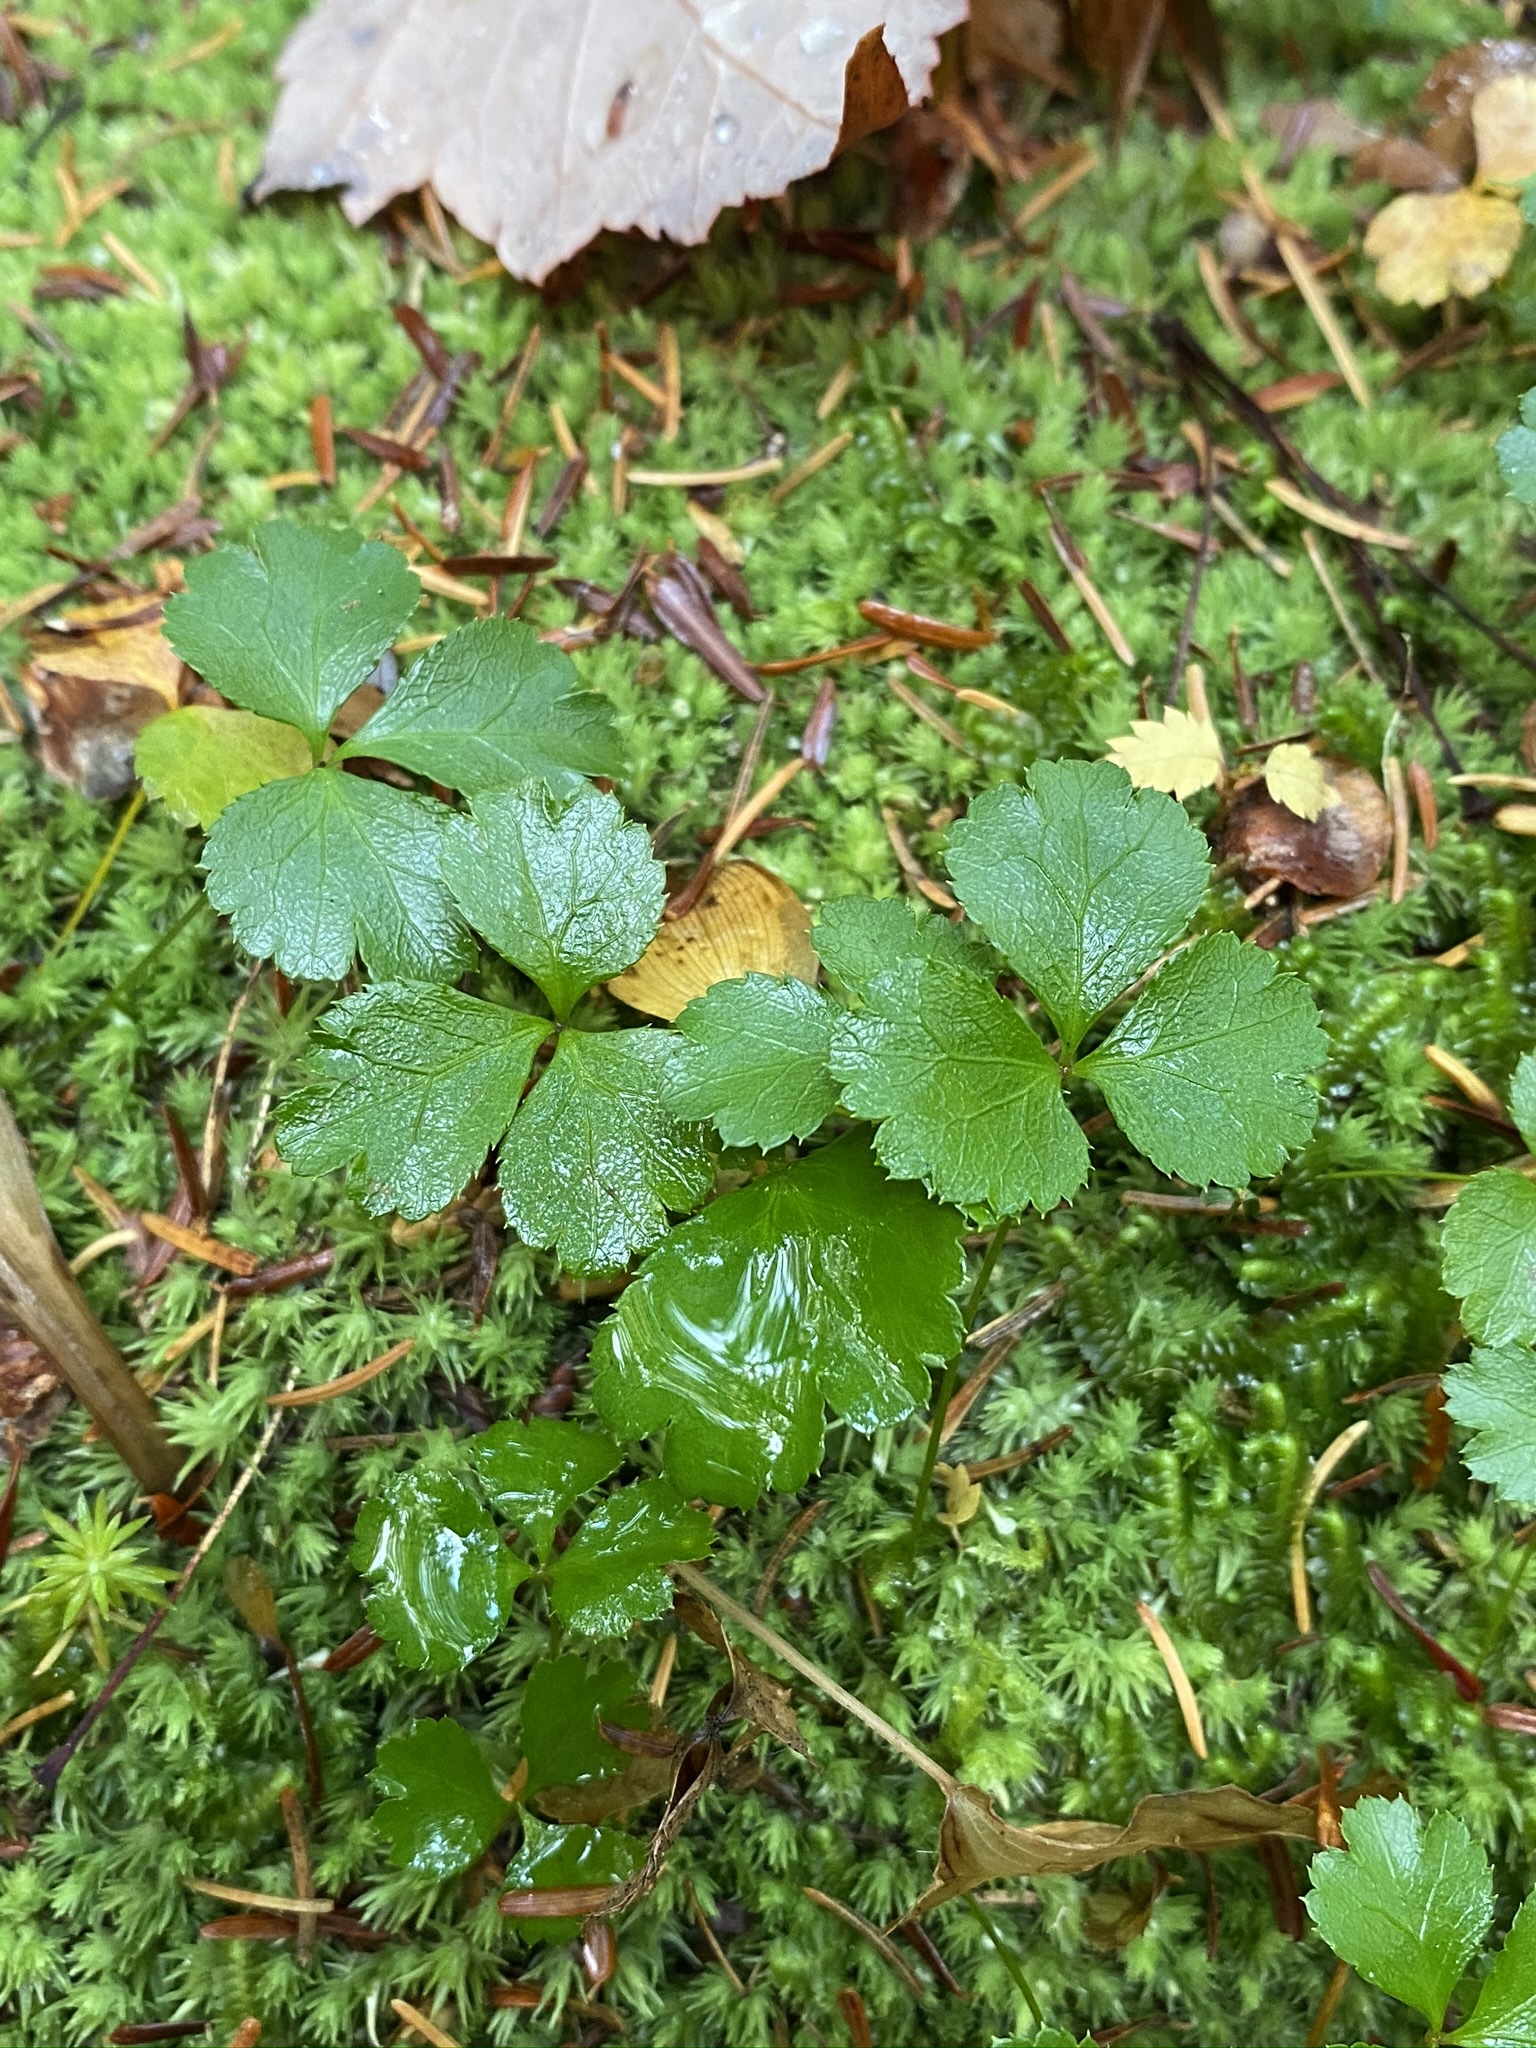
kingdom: Plantae
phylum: Tracheophyta
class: Magnoliopsida
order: Ranunculales
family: Ranunculaceae
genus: Coptis
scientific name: Coptis trifolia
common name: Canker-root
